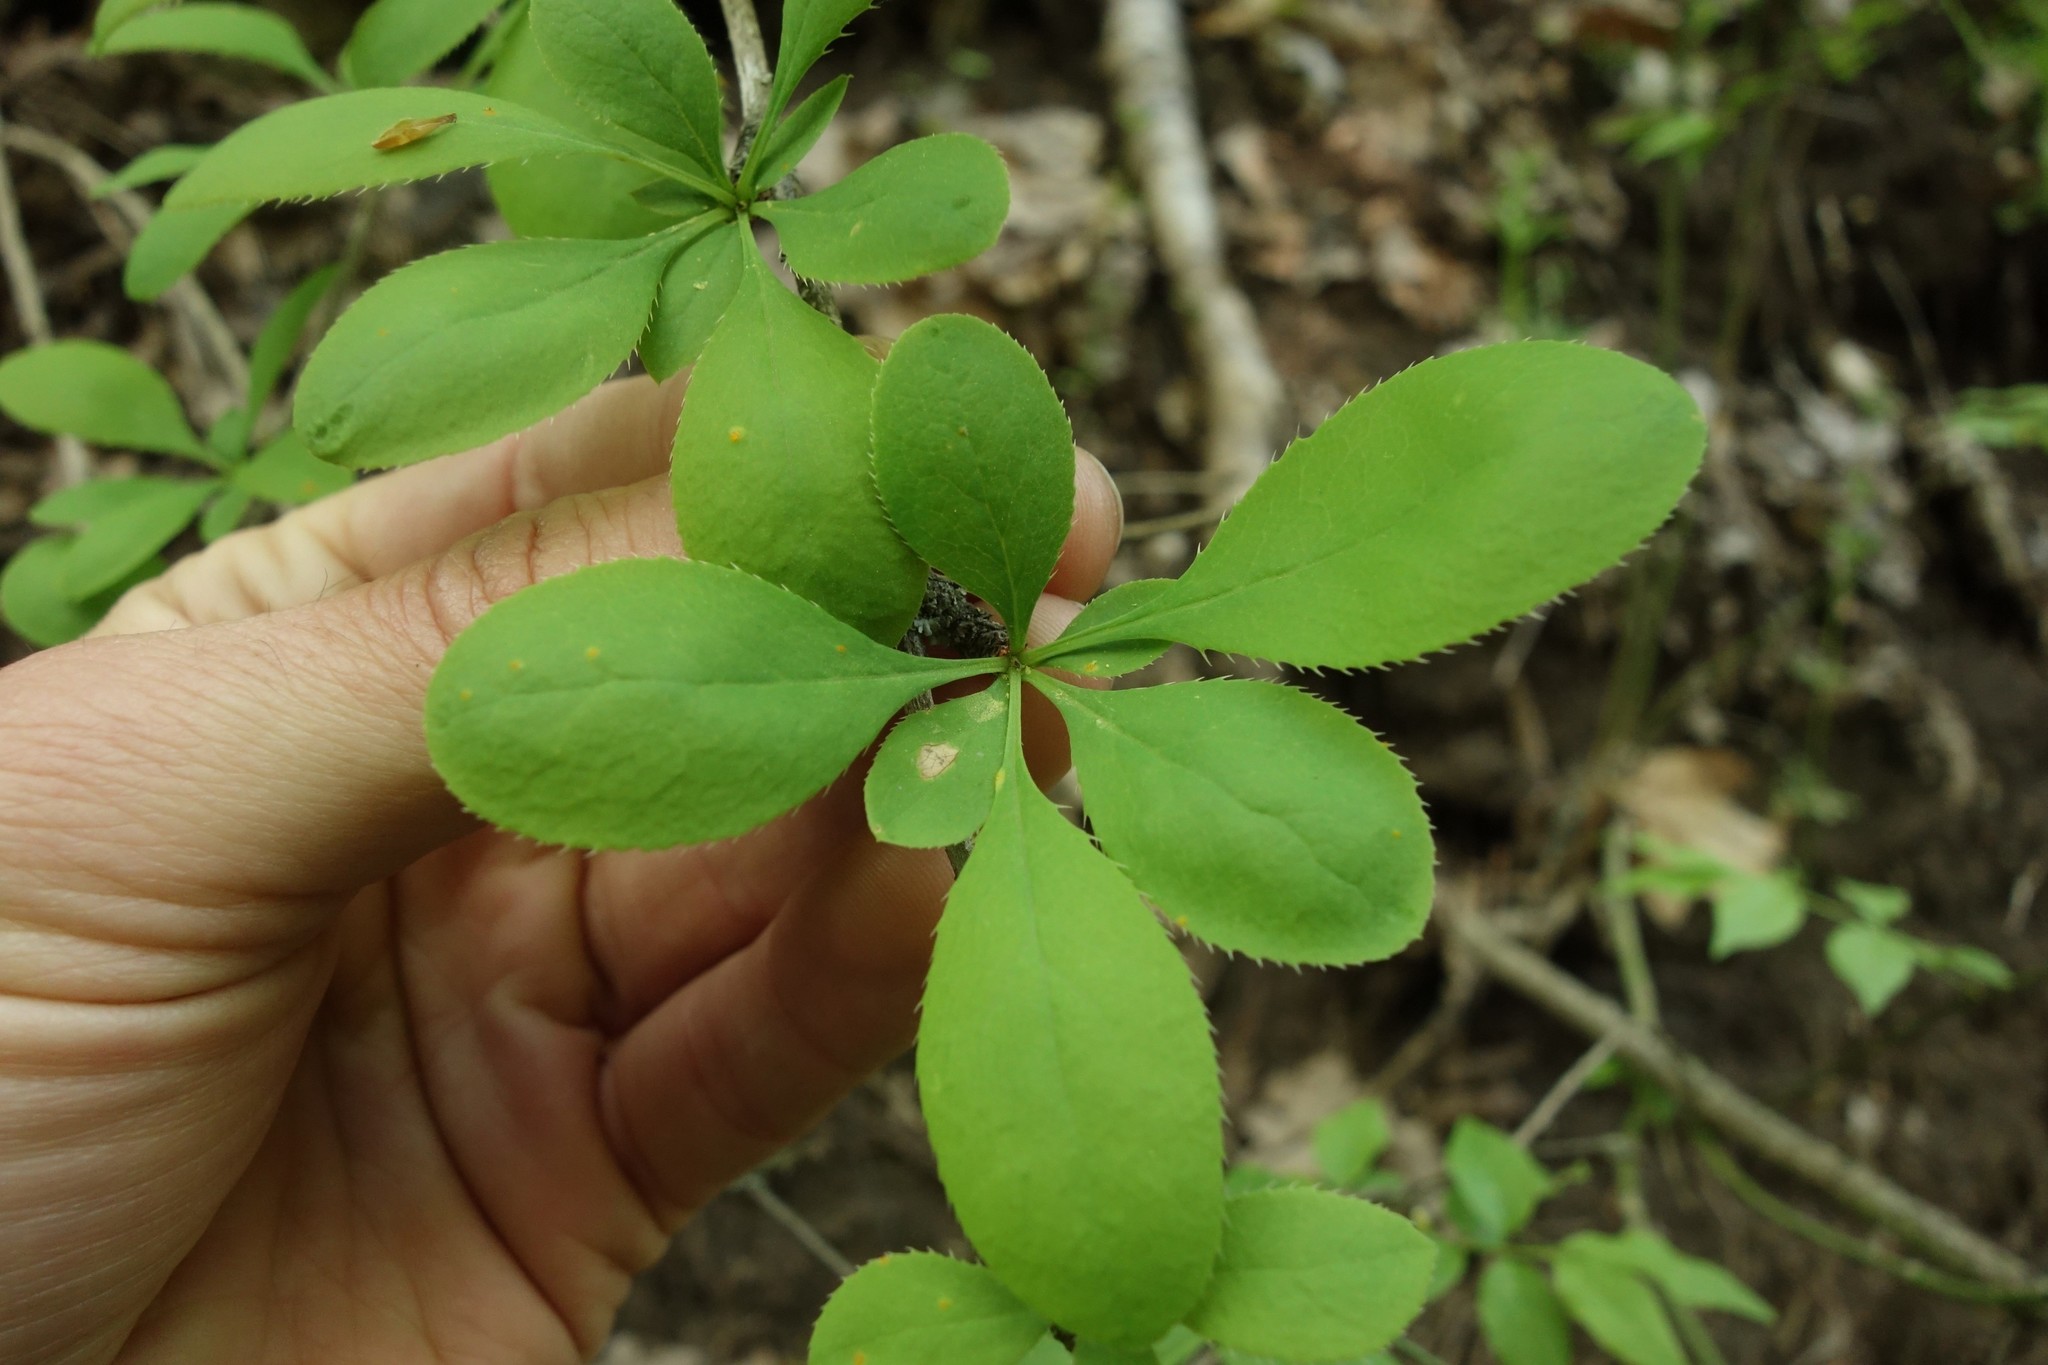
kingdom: Plantae
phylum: Tracheophyta
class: Magnoliopsida
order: Ranunculales
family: Berberidaceae
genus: Berberis
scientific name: Berberis vulgaris
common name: Barberry
